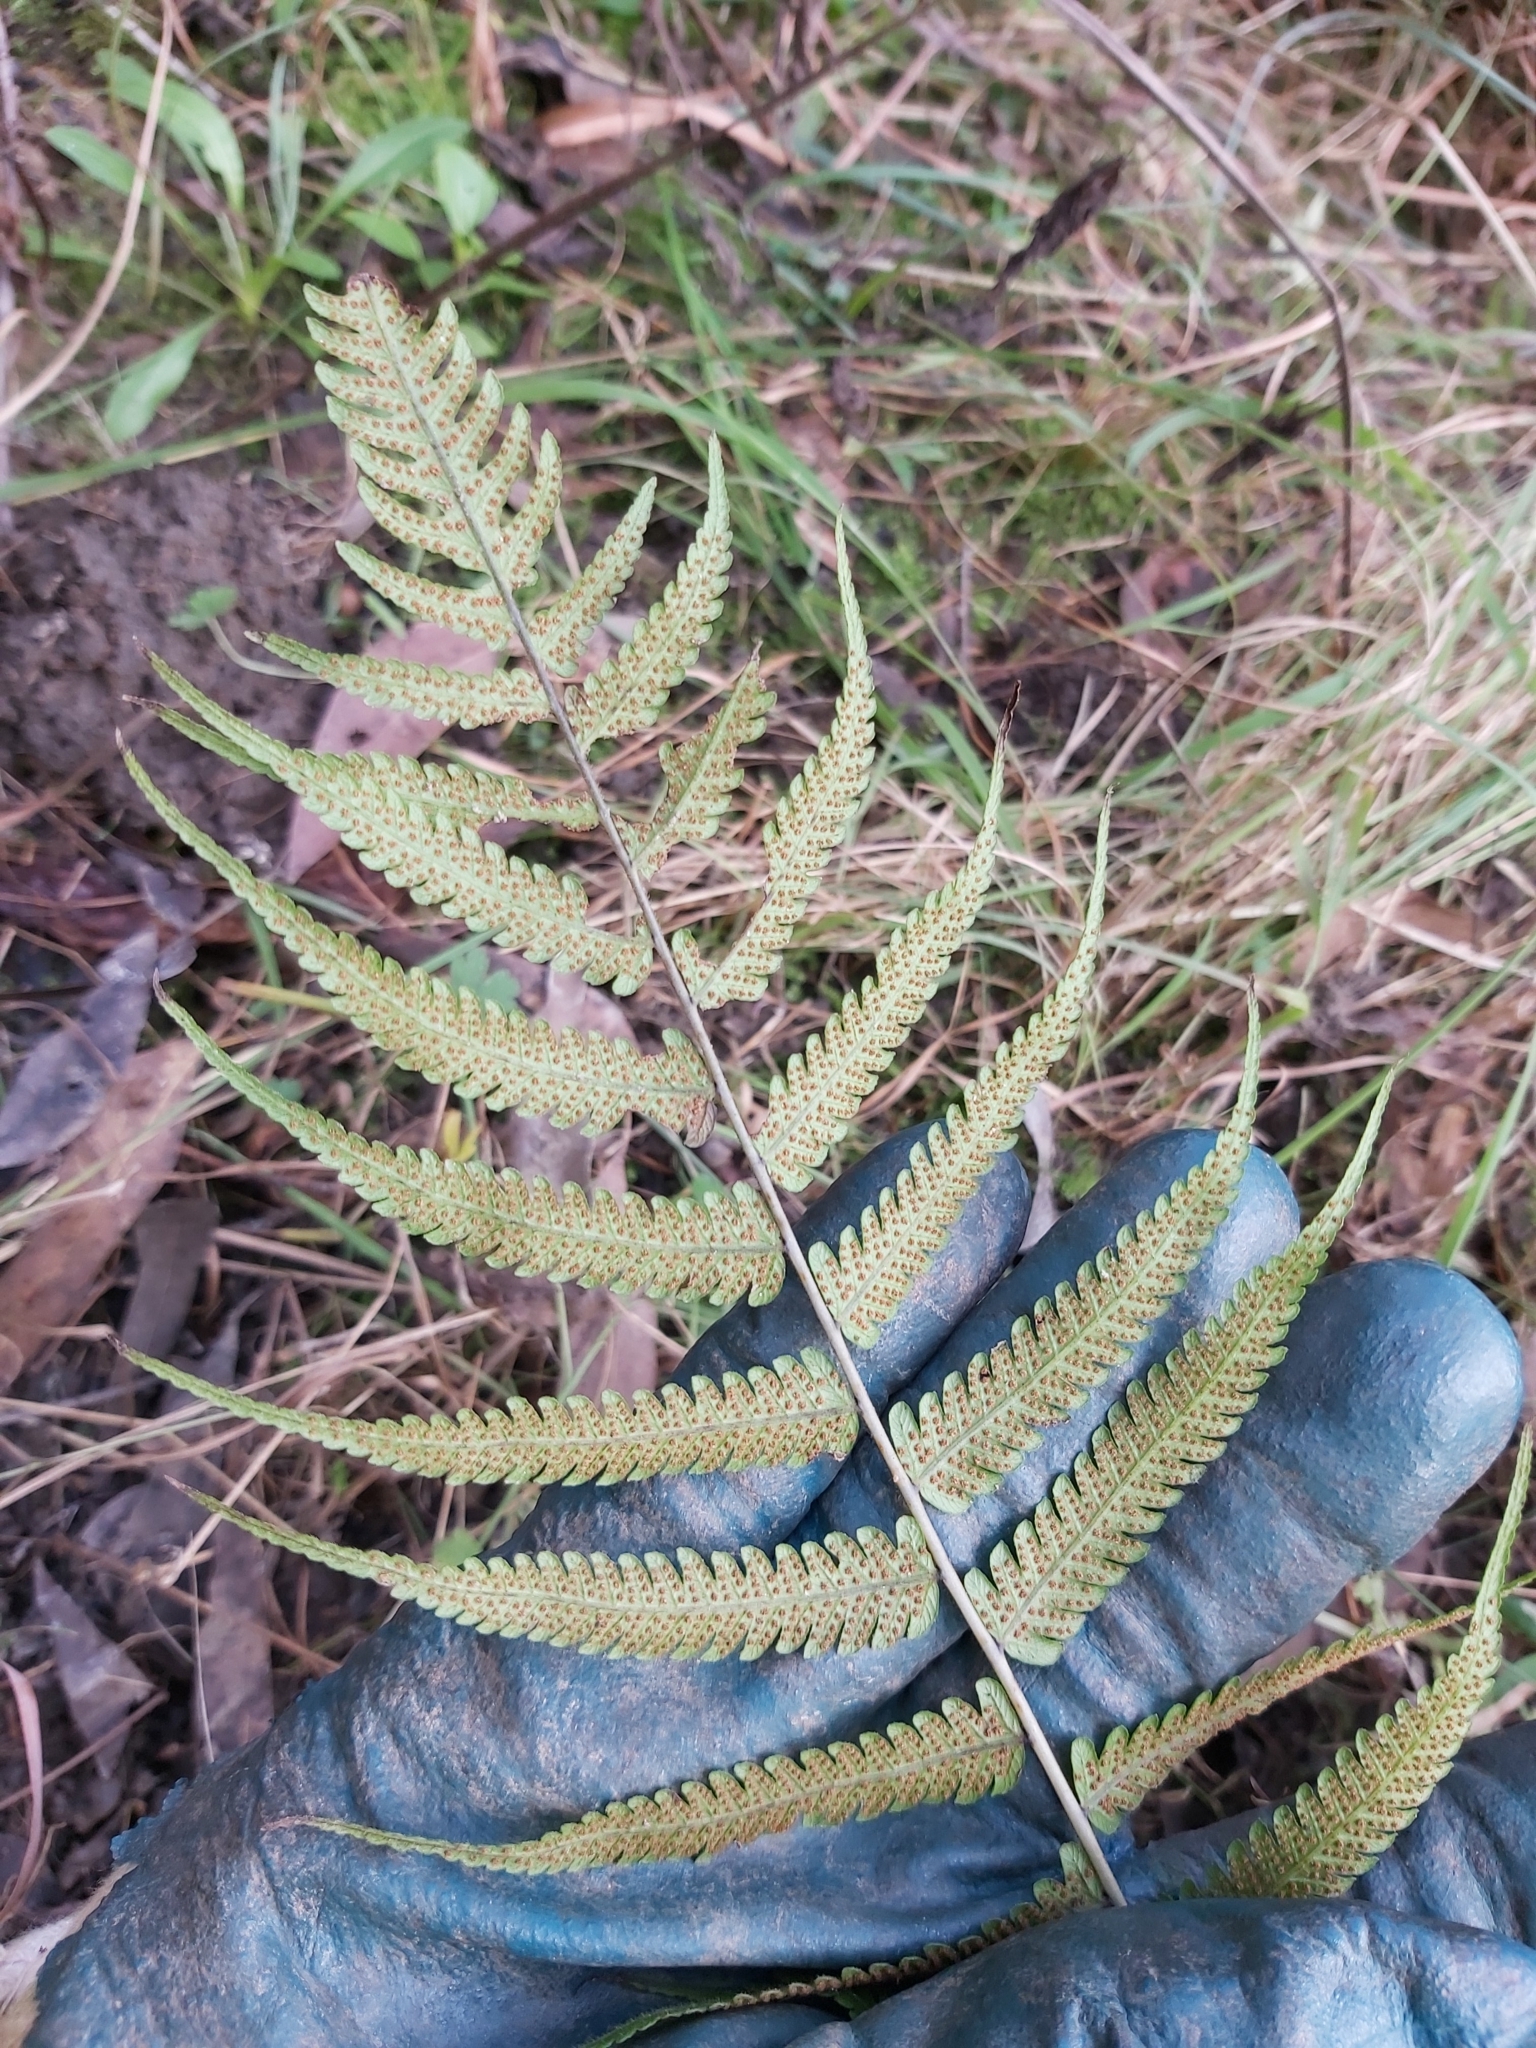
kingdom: Plantae
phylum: Tracheophyta
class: Polypodiopsida
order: Polypodiales
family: Thelypteridaceae
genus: Christella
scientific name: Christella dentata
